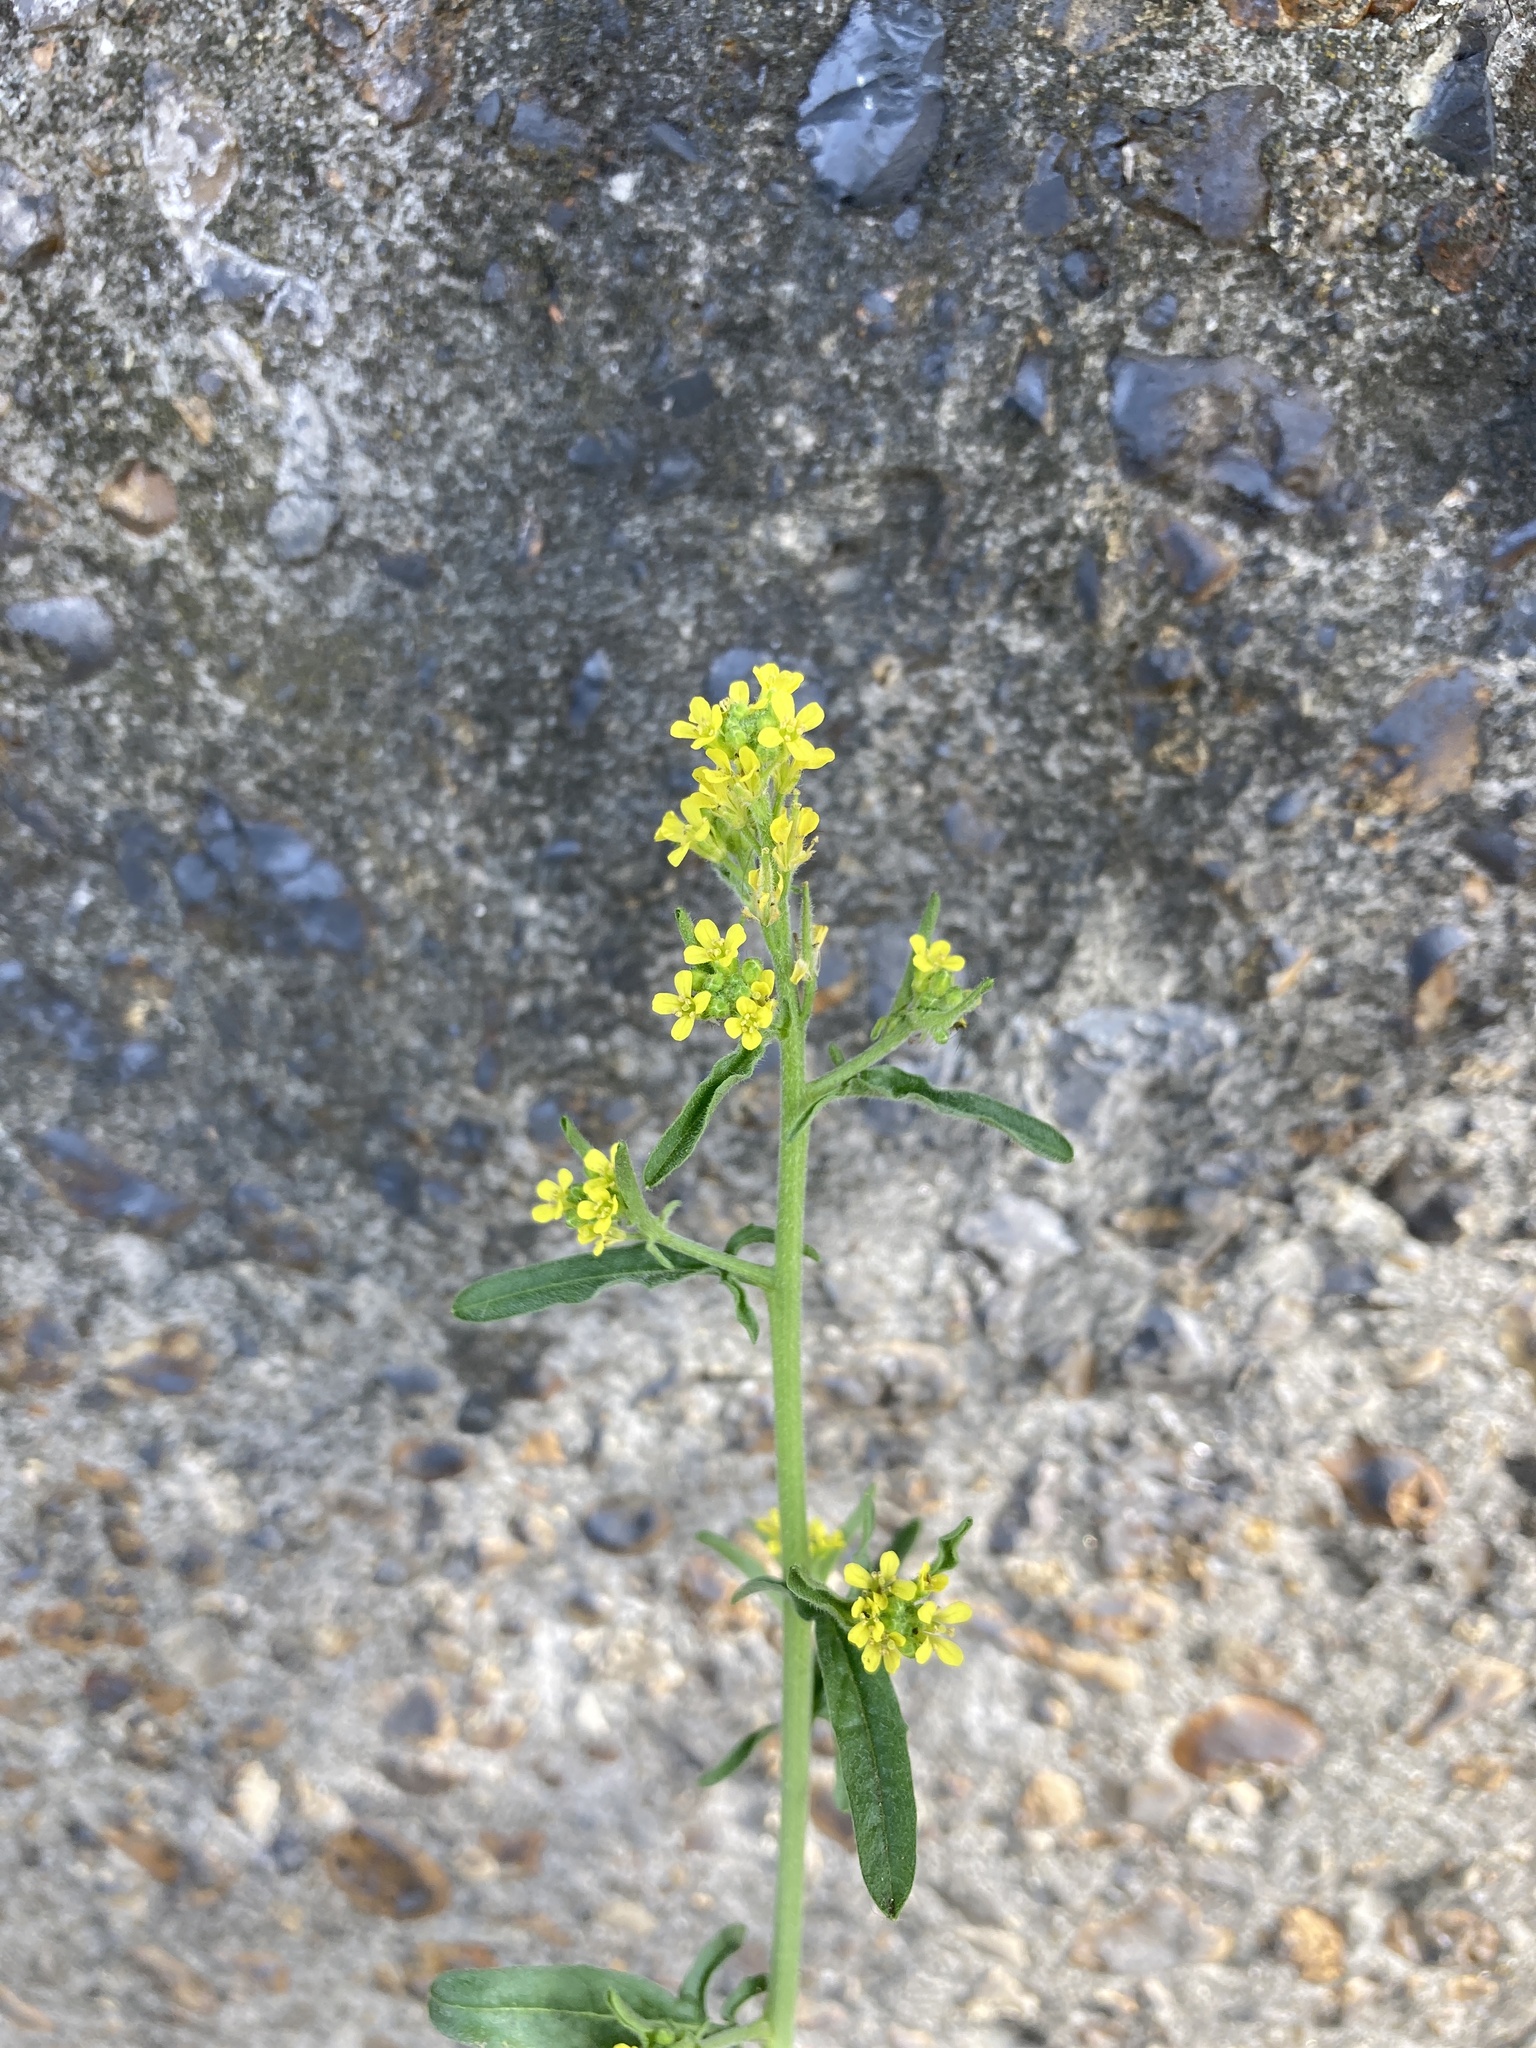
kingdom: Plantae
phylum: Tracheophyta
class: Magnoliopsida
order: Brassicales
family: Brassicaceae
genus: Sisymbrium
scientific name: Sisymbrium officinale
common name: Hedge mustard
